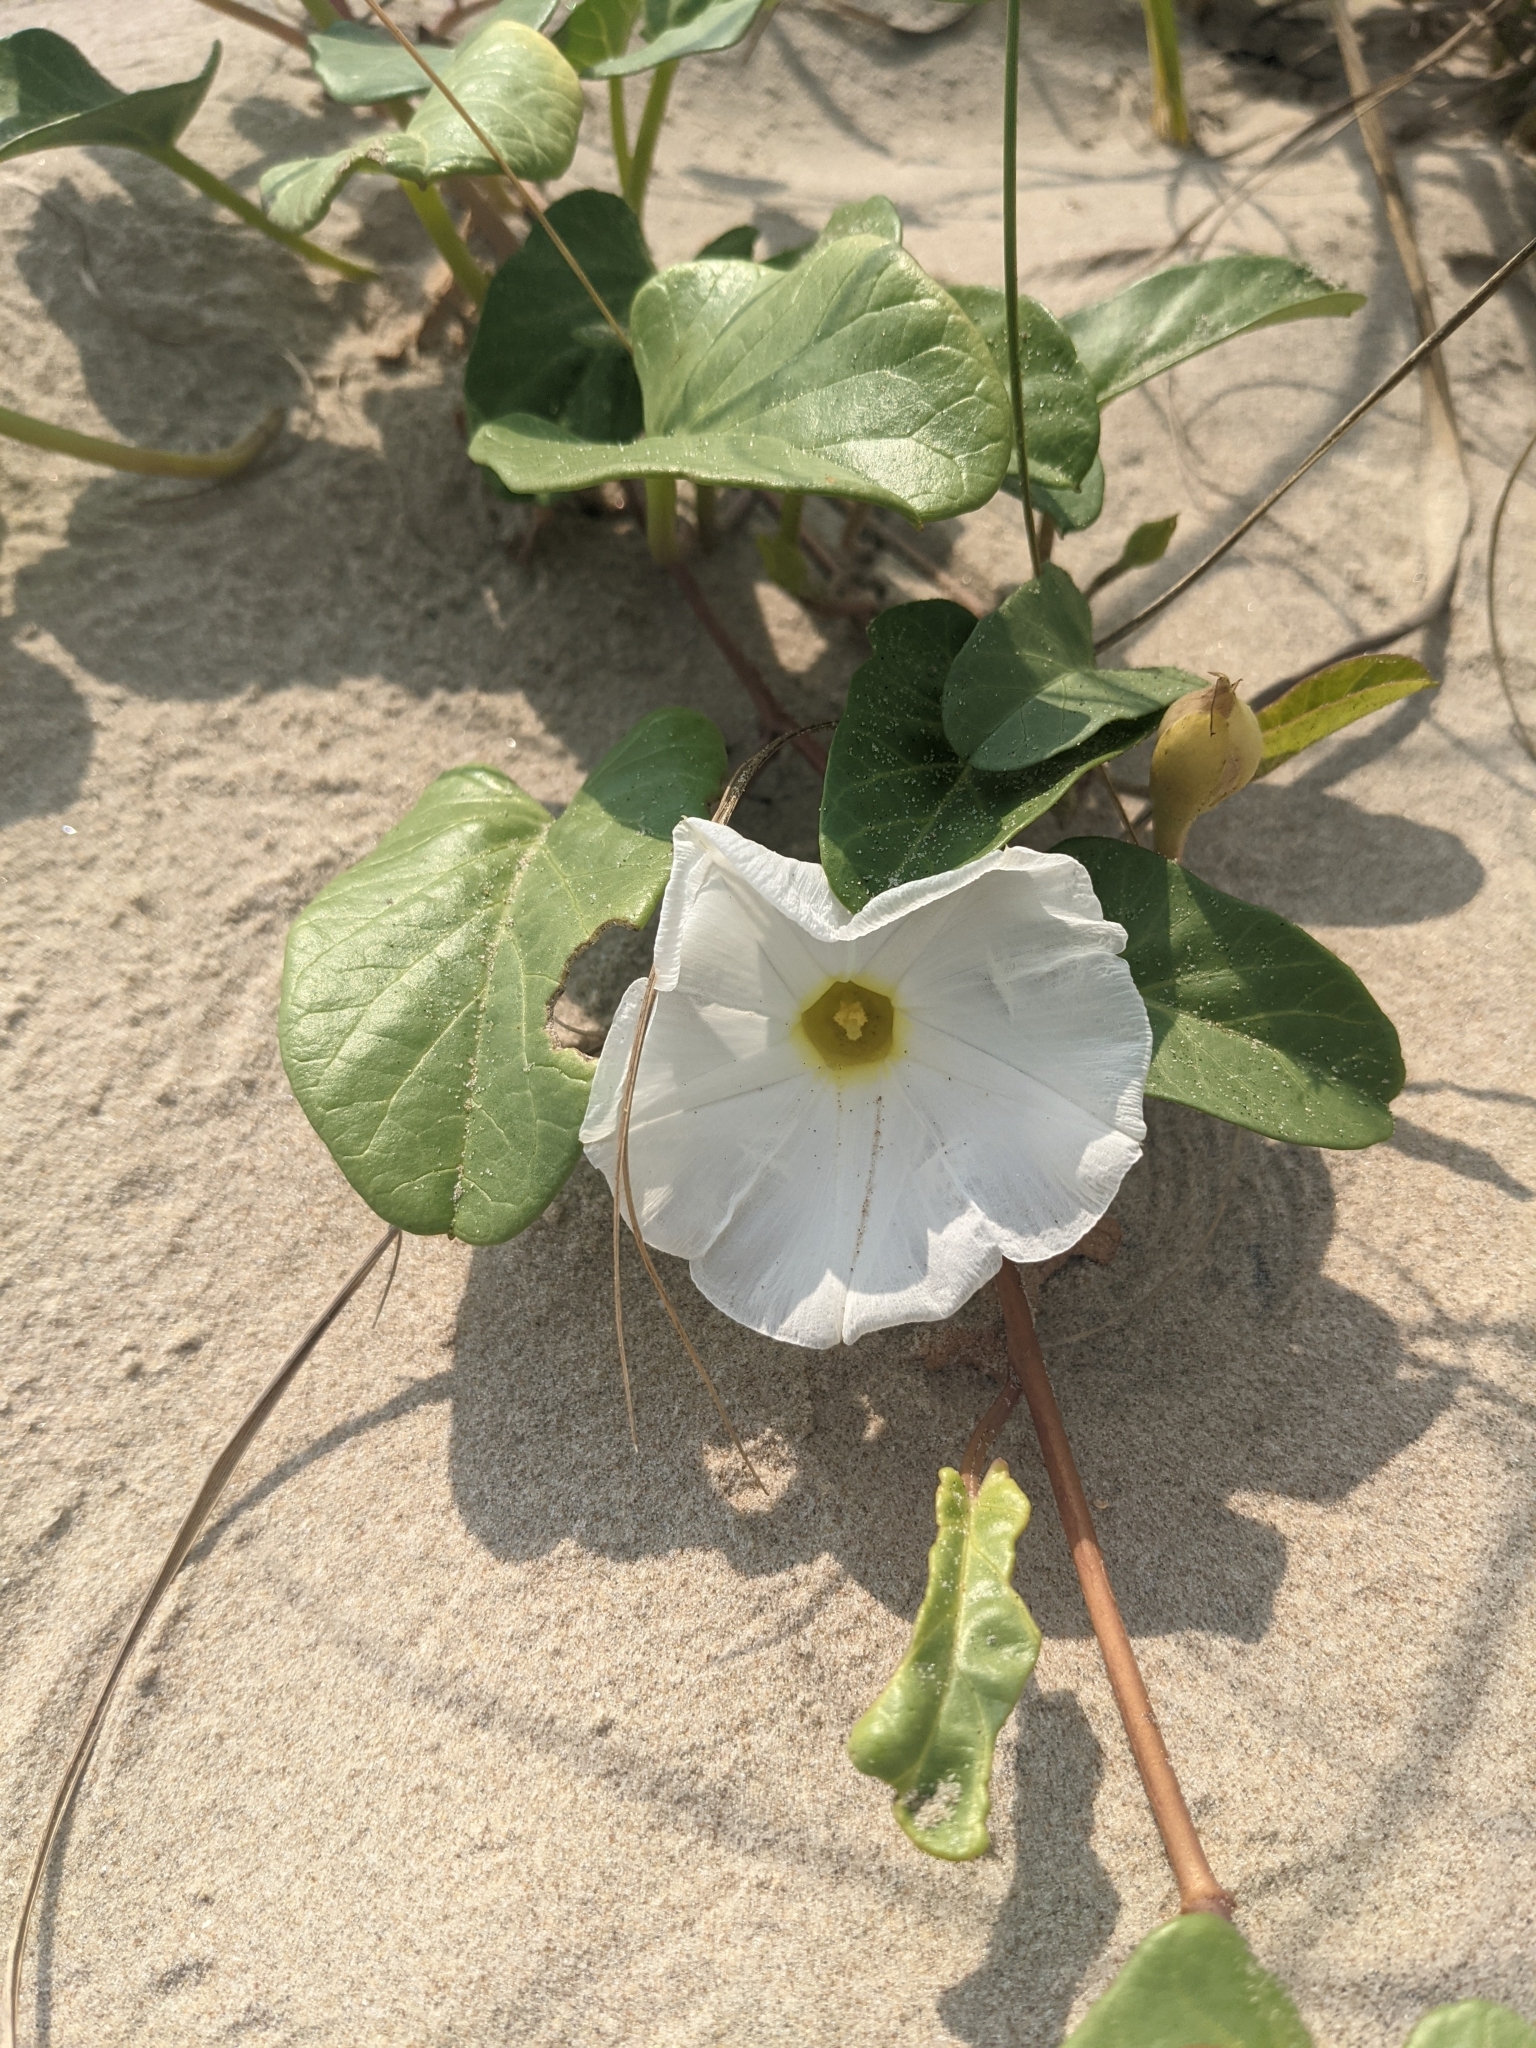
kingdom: Plantae
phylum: Tracheophyta
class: Magnoliopsida
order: Solanales
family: Convolvulaceae
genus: Ipomoea
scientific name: Ipomoea imperati
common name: Fiddle-leaf morning-glory
